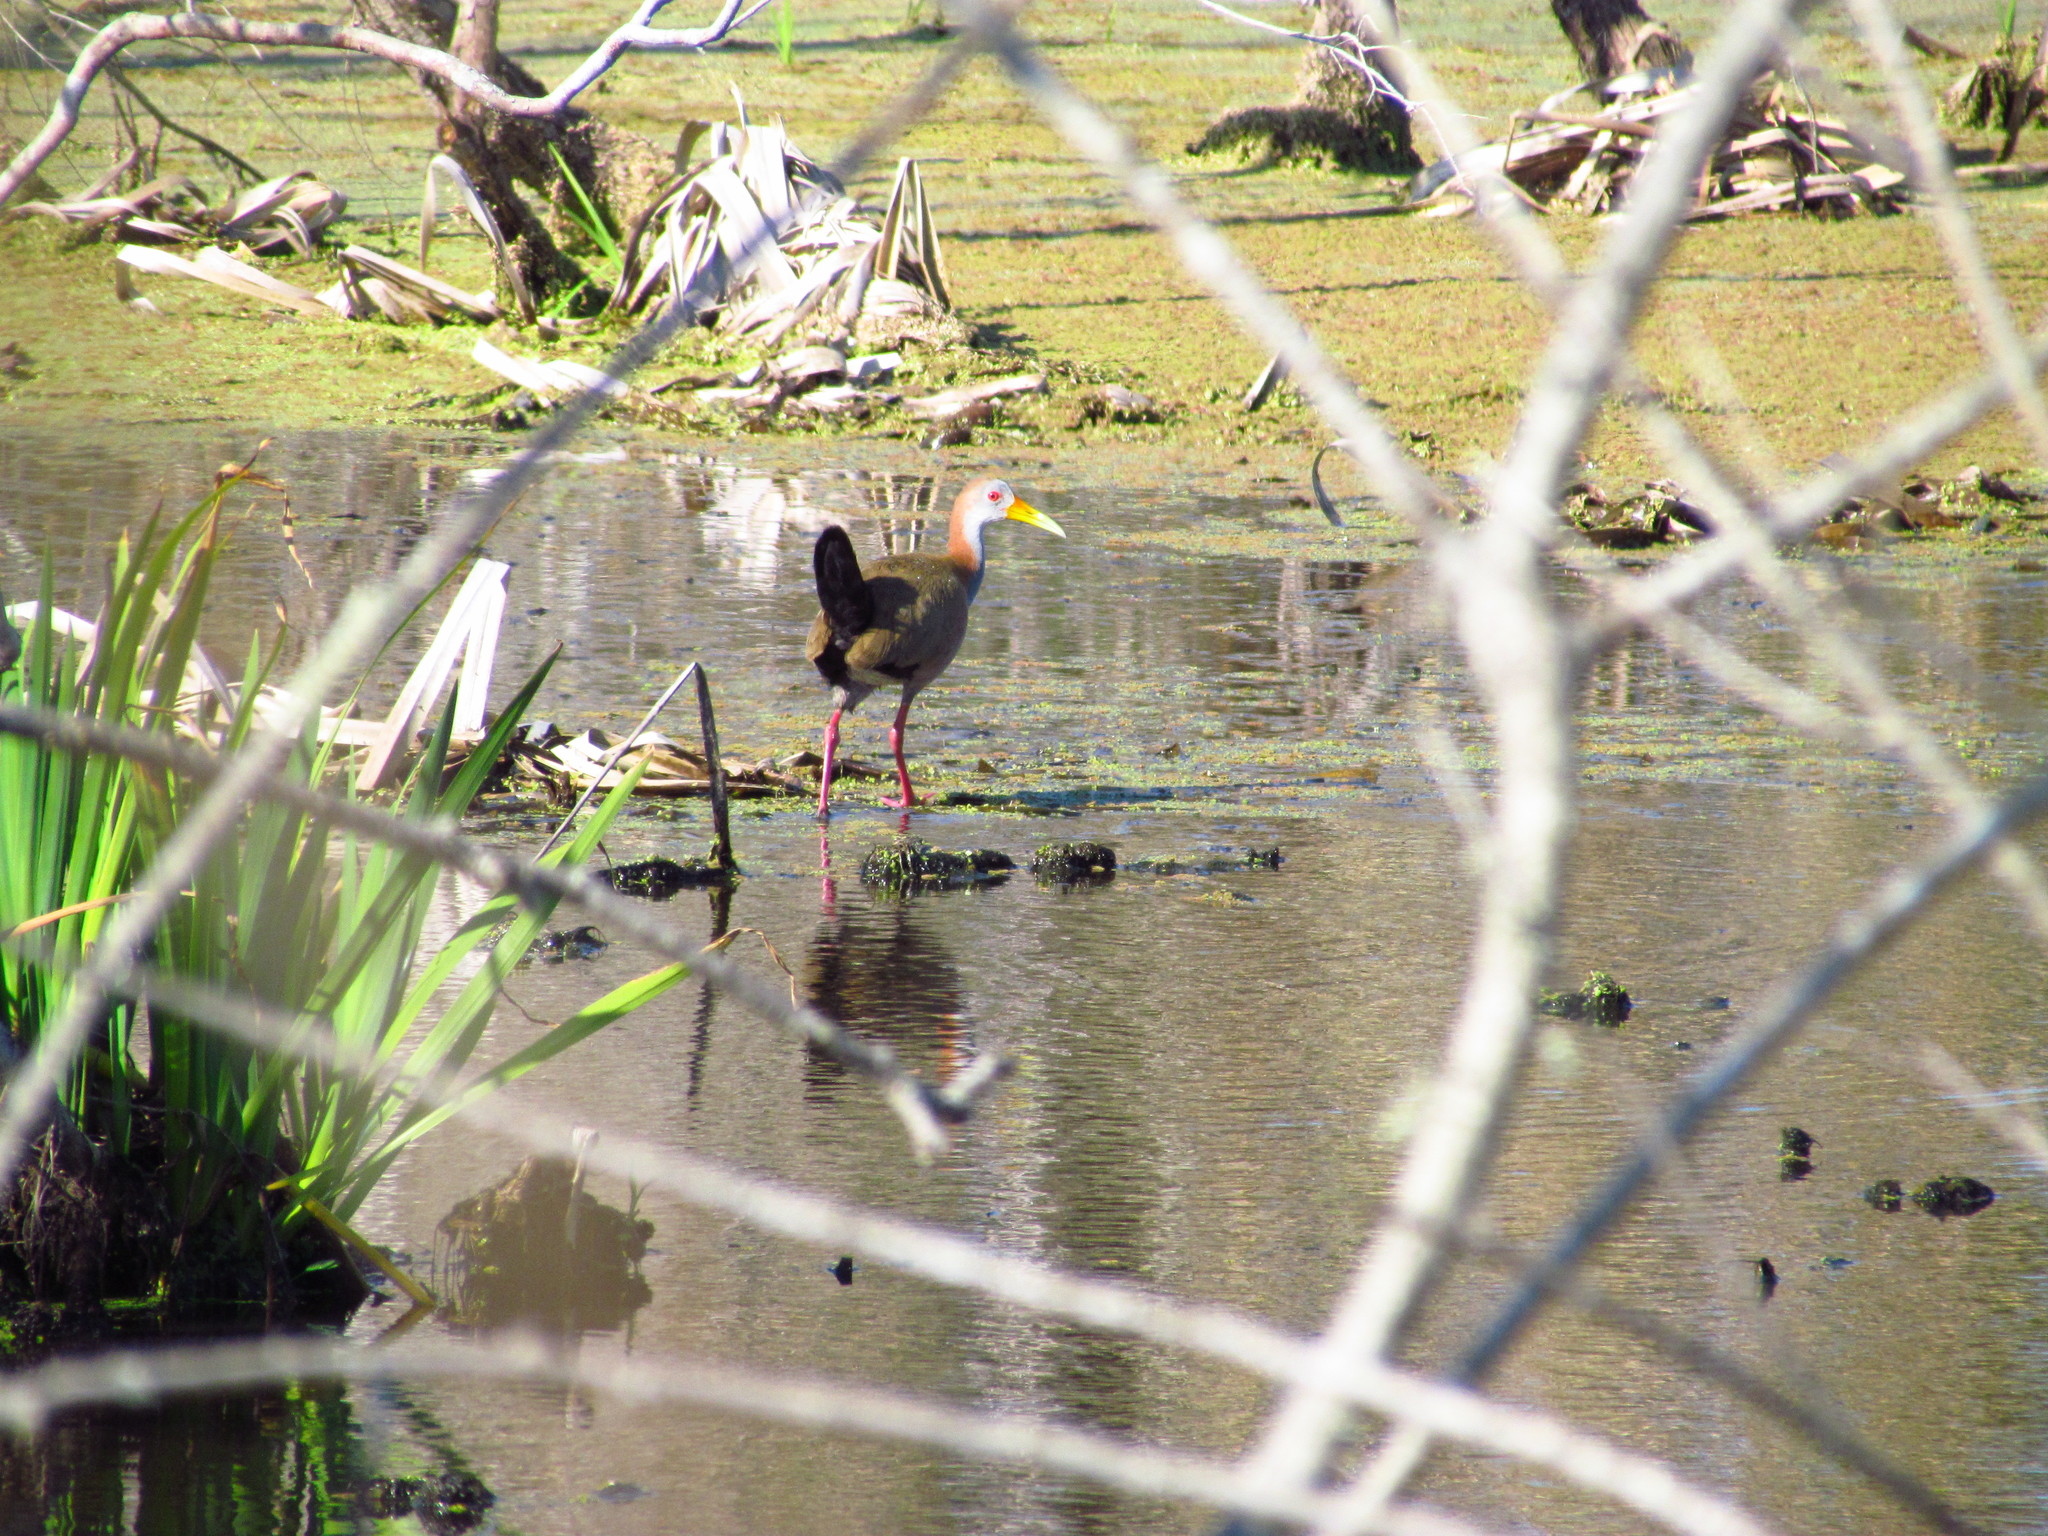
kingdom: Animalia
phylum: Chordata
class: Aves
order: Gruiformes
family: Rallidae
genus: Aramides
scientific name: Aramides ypecaha
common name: Giant wood rail
